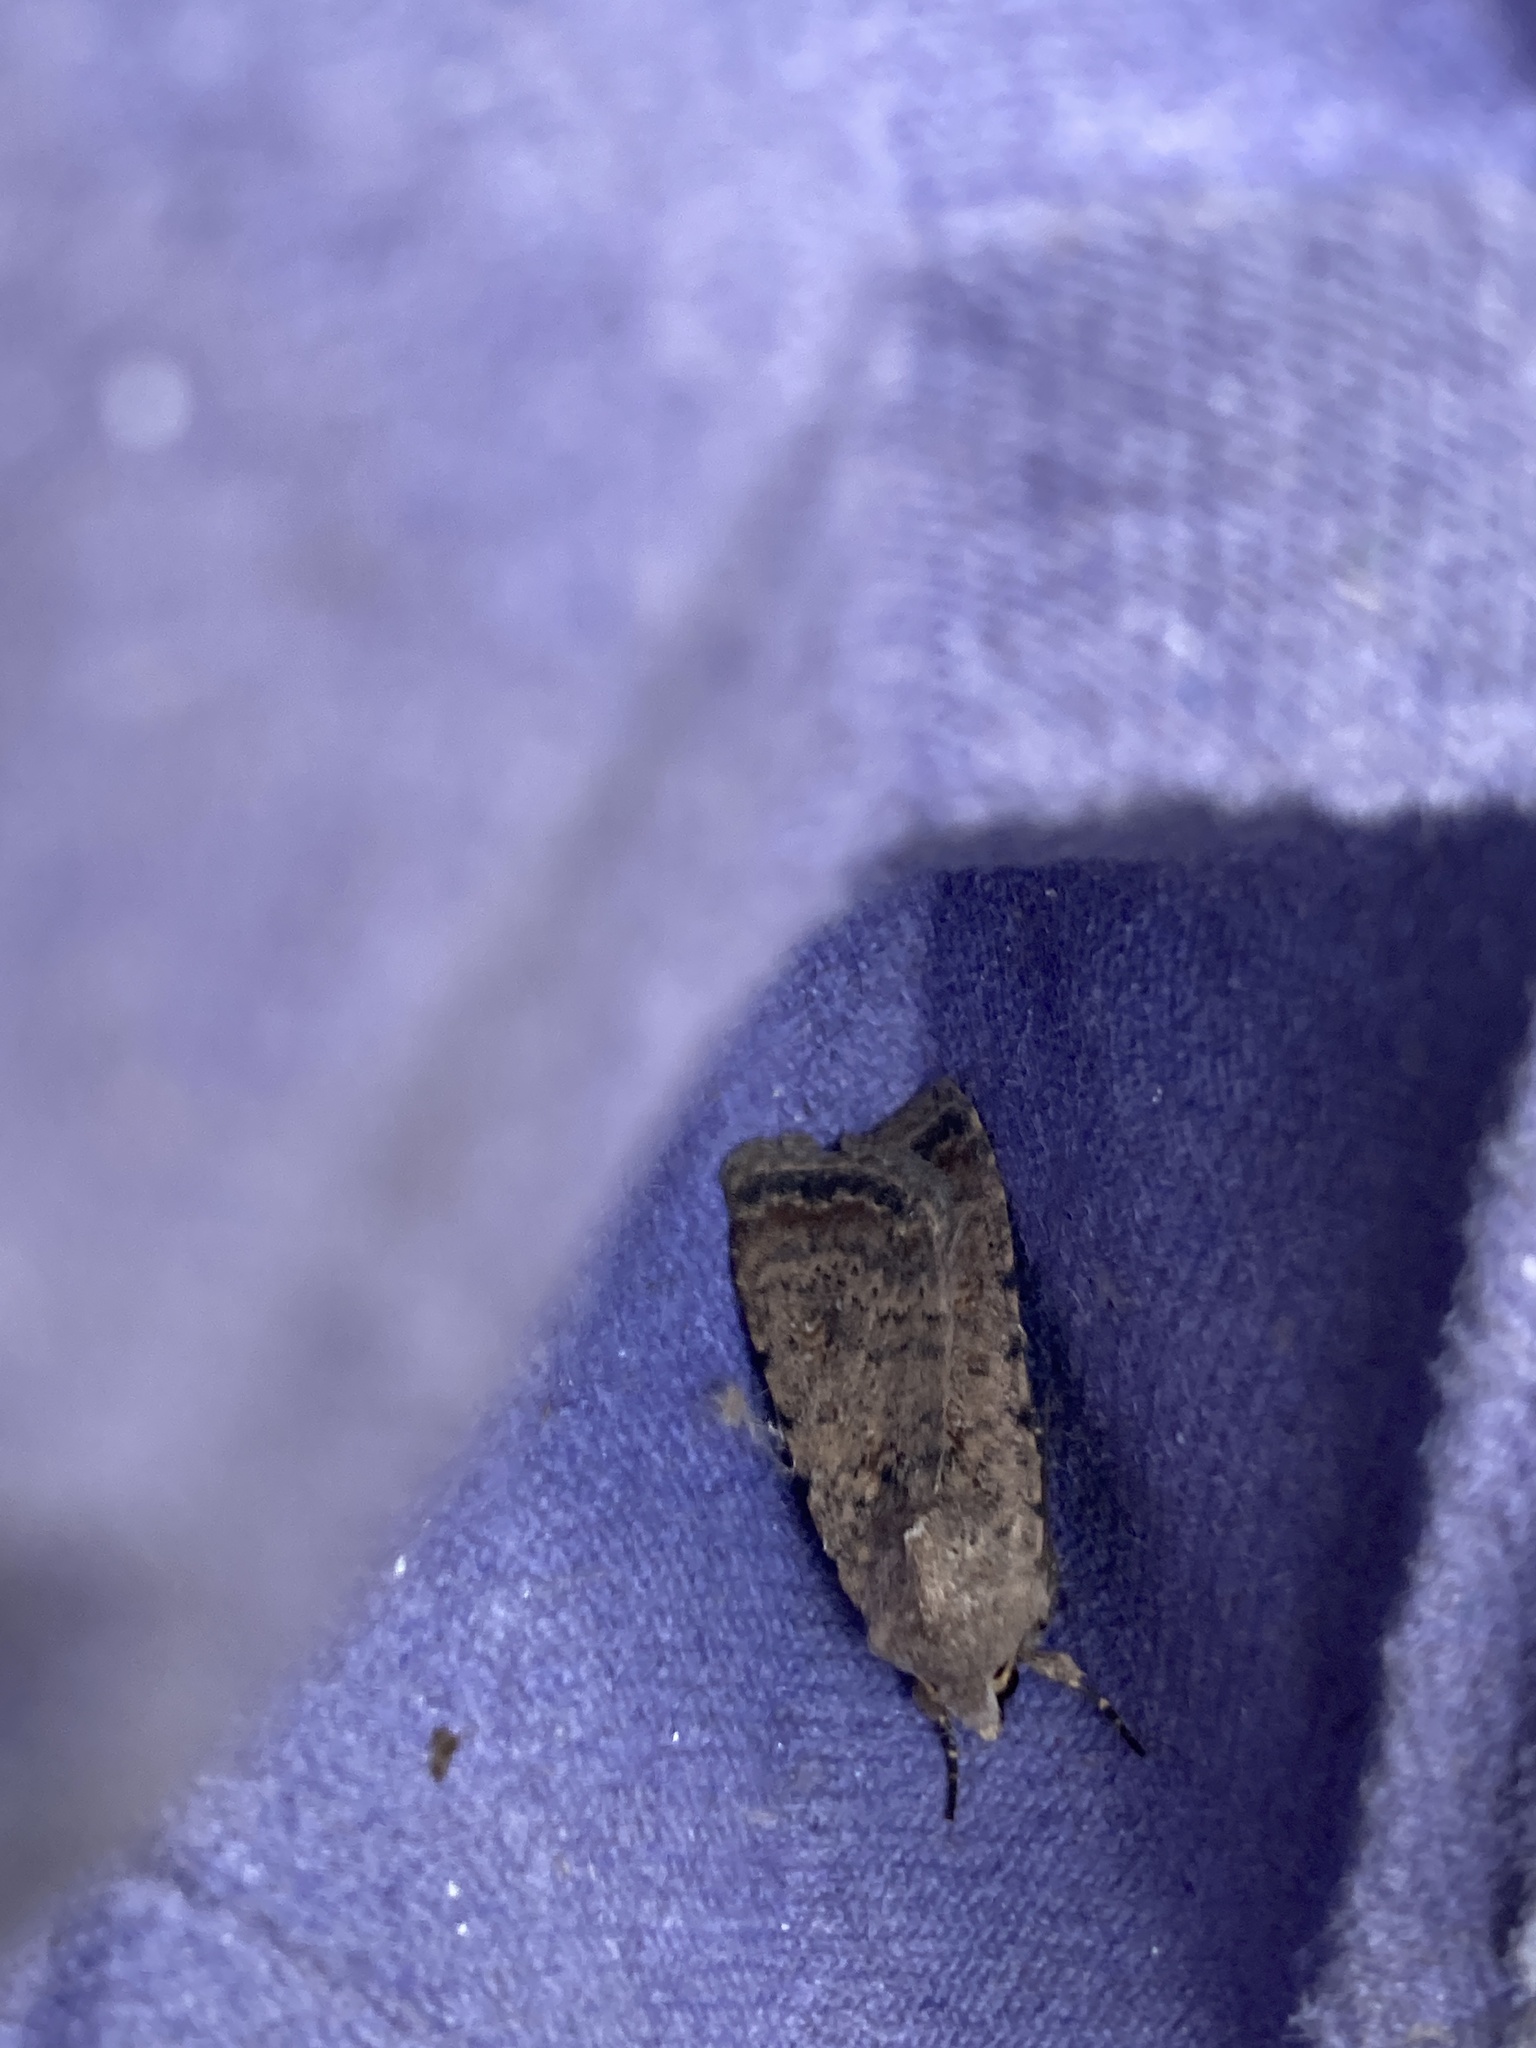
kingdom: Animalia
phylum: Arthropoda
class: Insecta
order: Lepidoptera
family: Noctuidae
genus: Caradrina
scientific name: Caradrina clavipalpis
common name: Pale mottled willow
